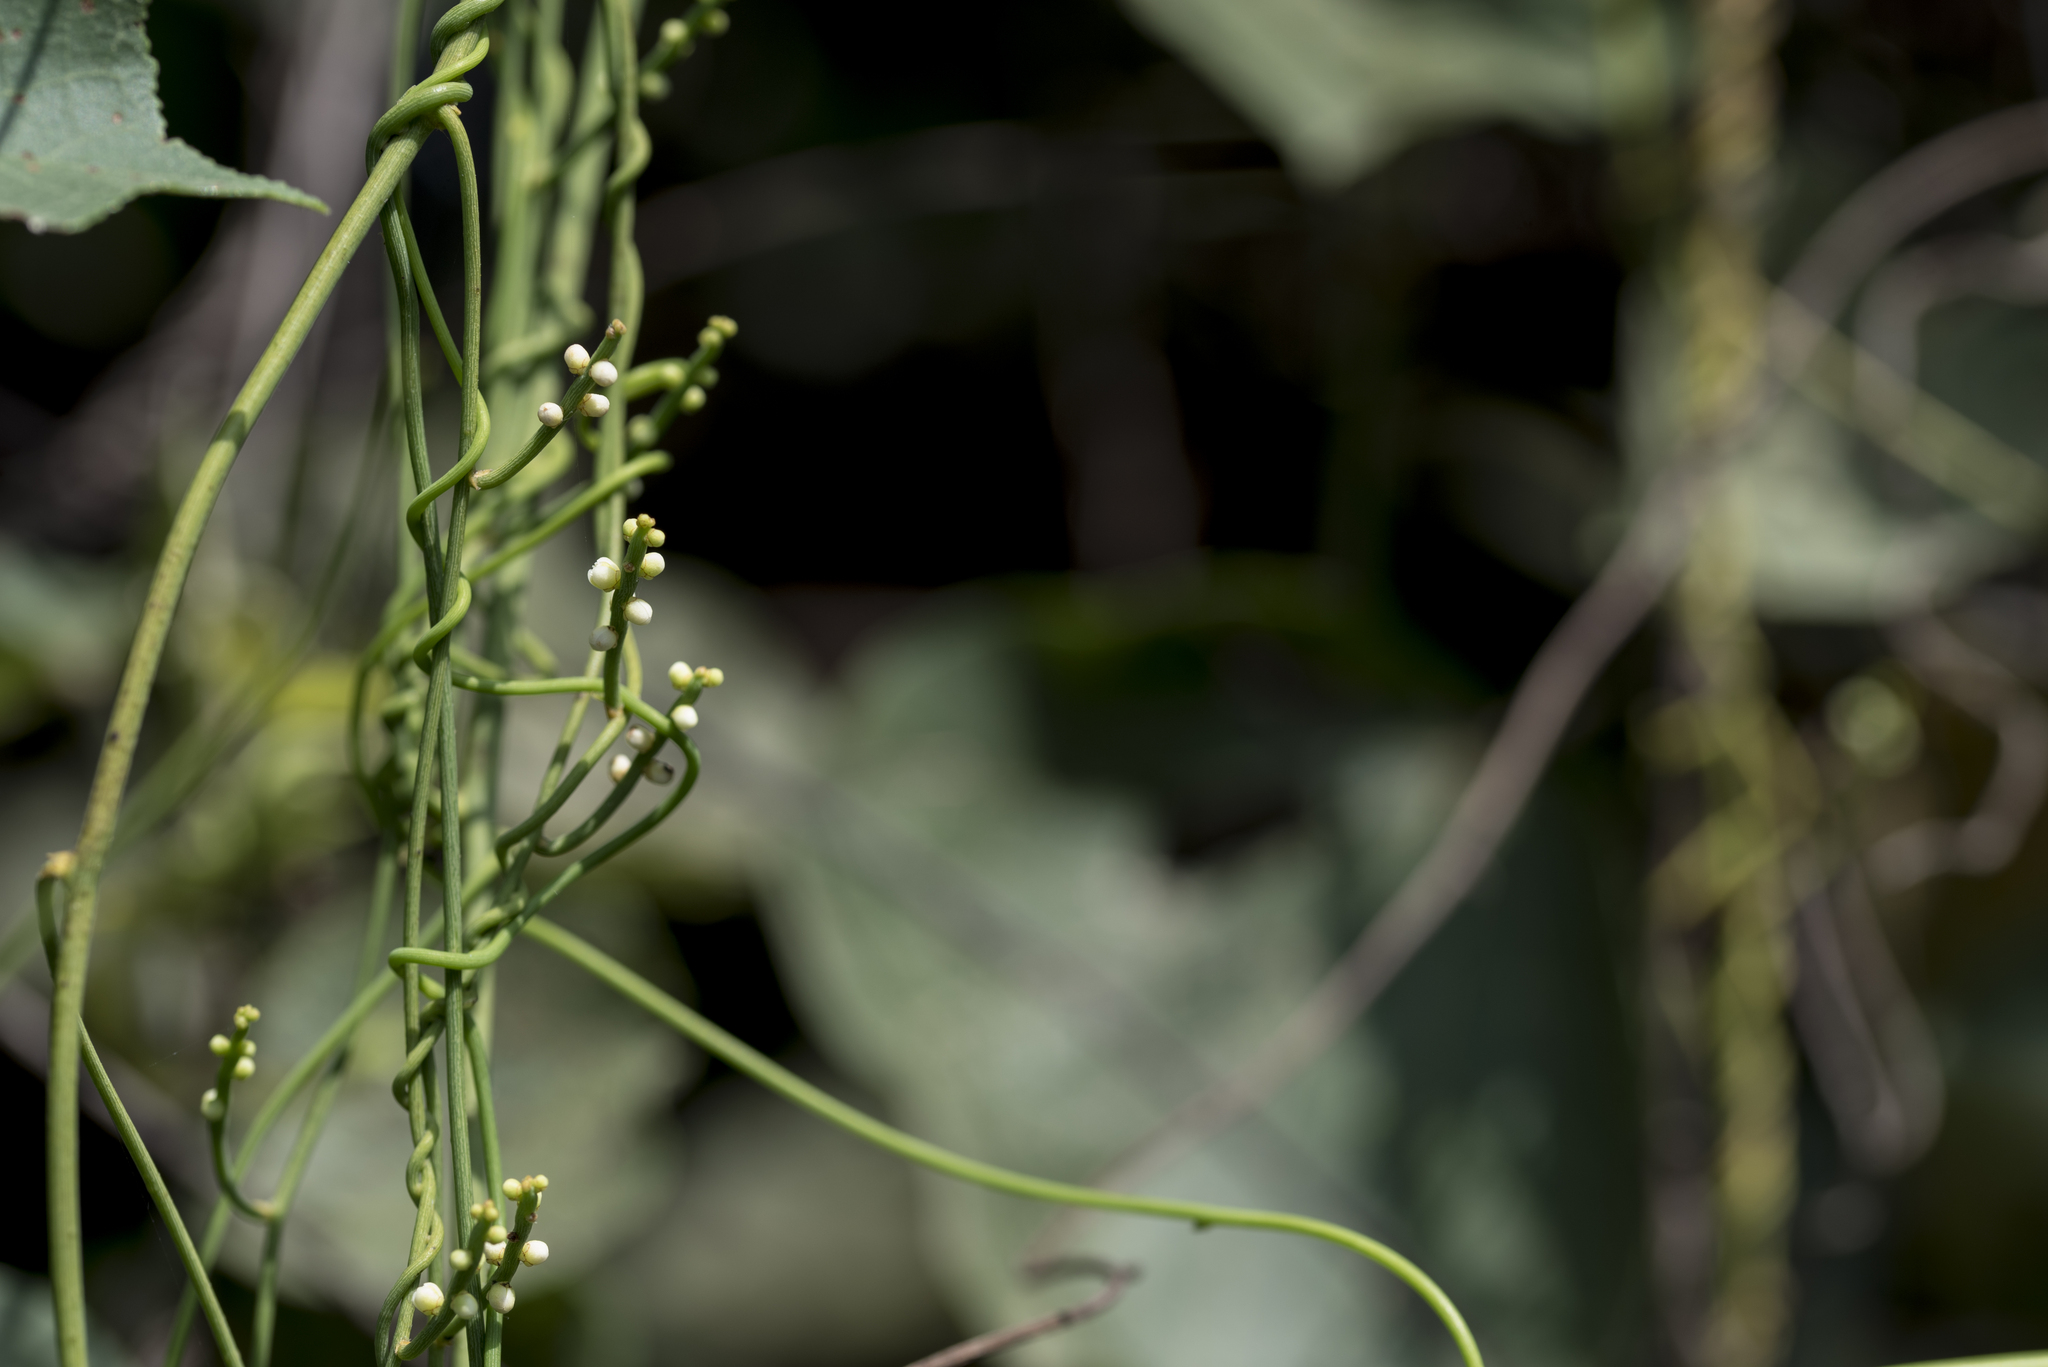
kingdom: Plantae
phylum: Tracheophyta
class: Magnoliopsida
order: Laurales
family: Lauraceae
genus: Cassytha
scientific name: Cassytha filiformis
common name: Dodder-laurel
